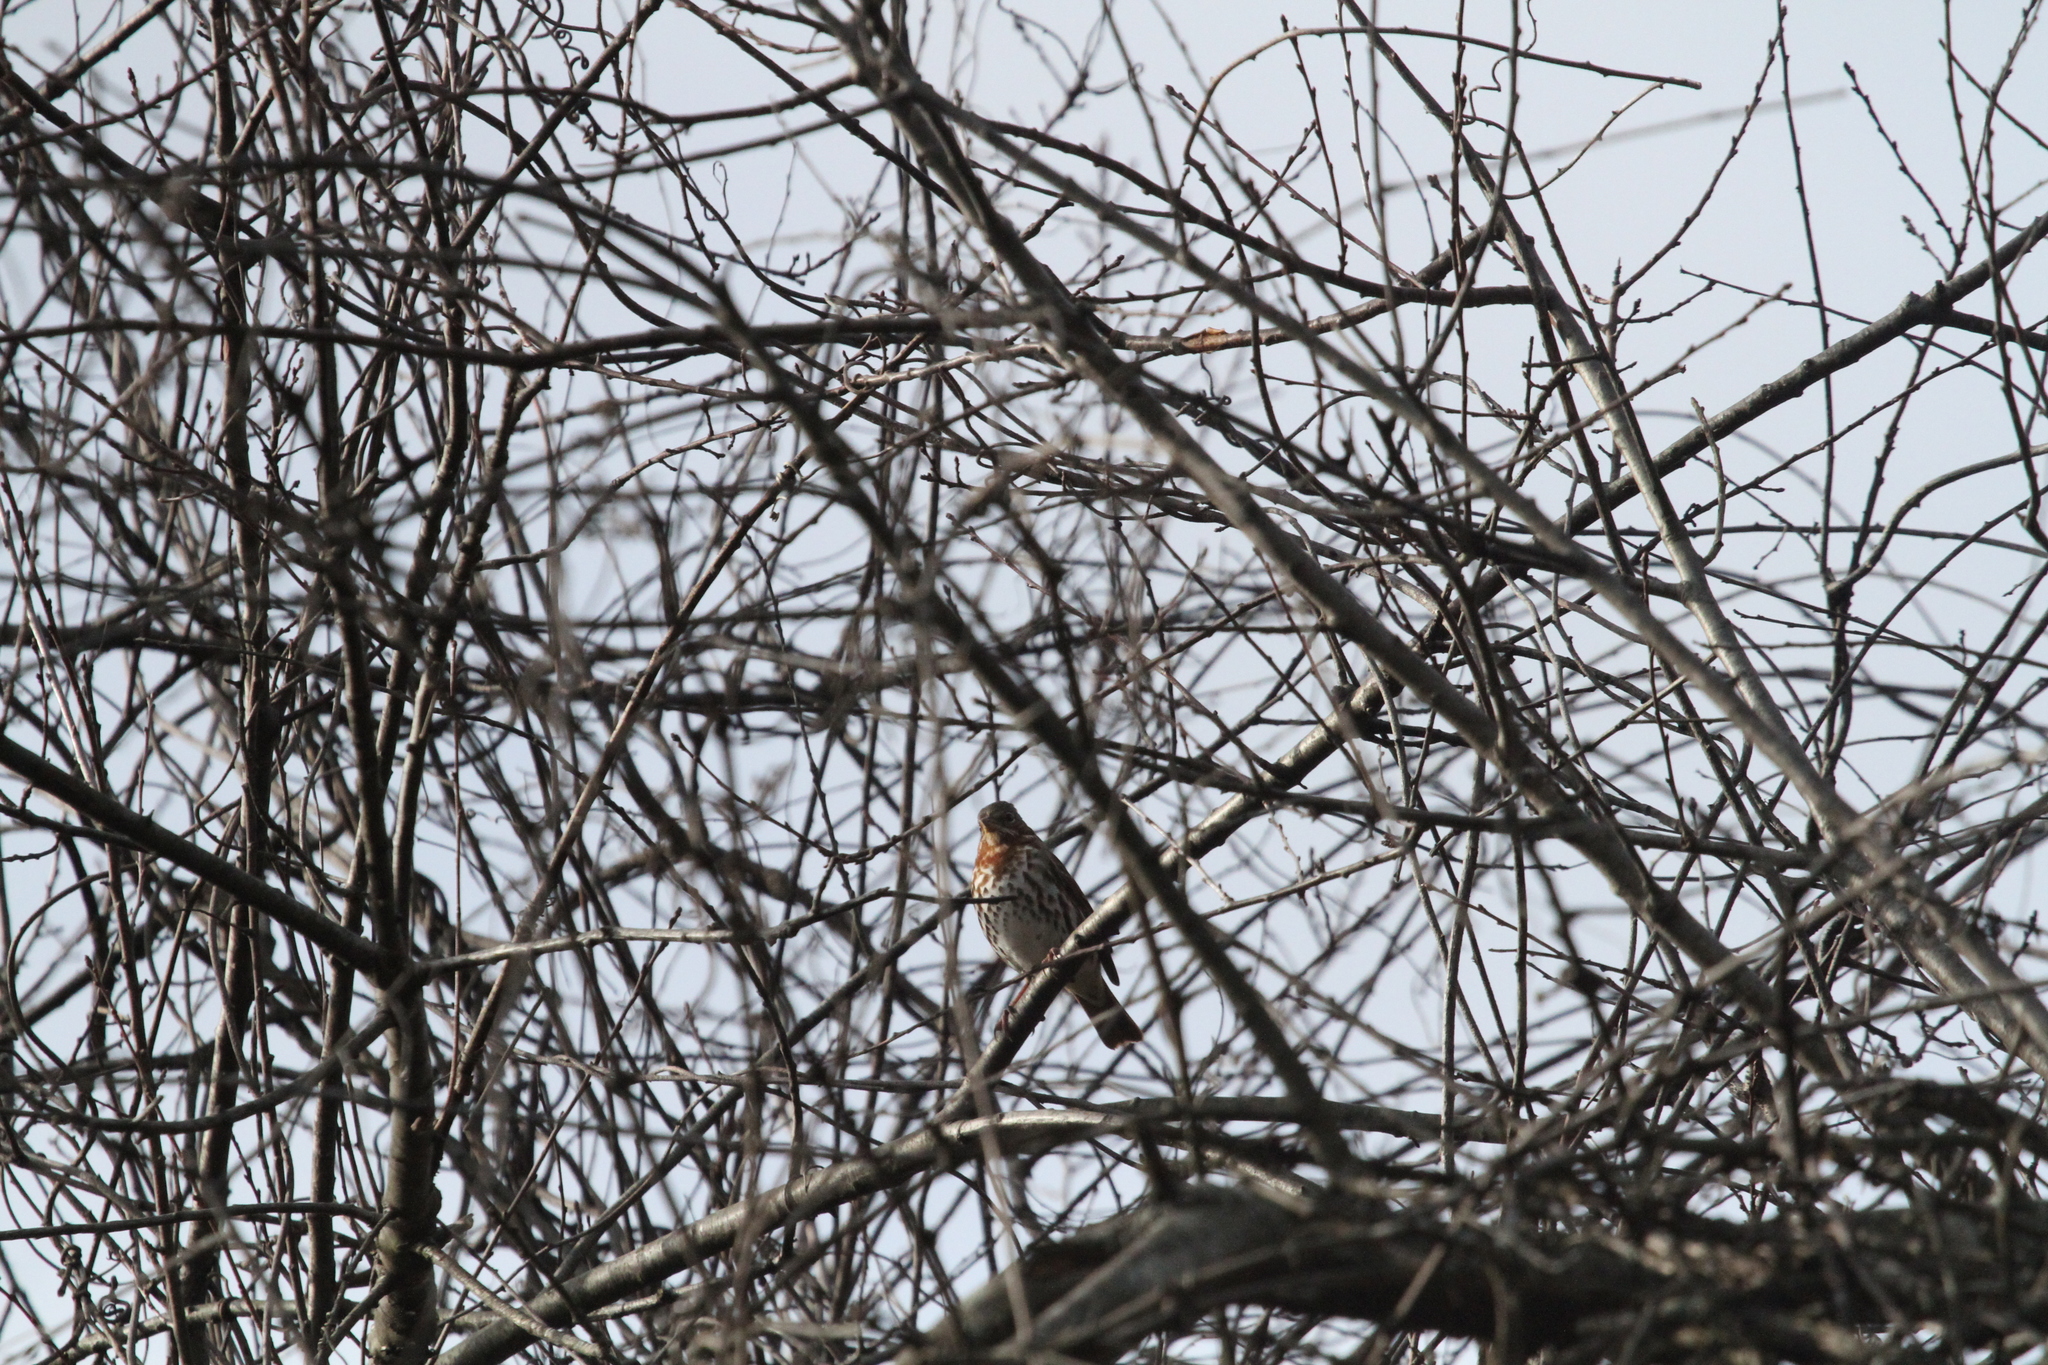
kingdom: Animalia
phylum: Chordata
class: Aves
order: Passeriformes
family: Passerellidae
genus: Passerella
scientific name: Passerella iliaca
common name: Fox sparrow
